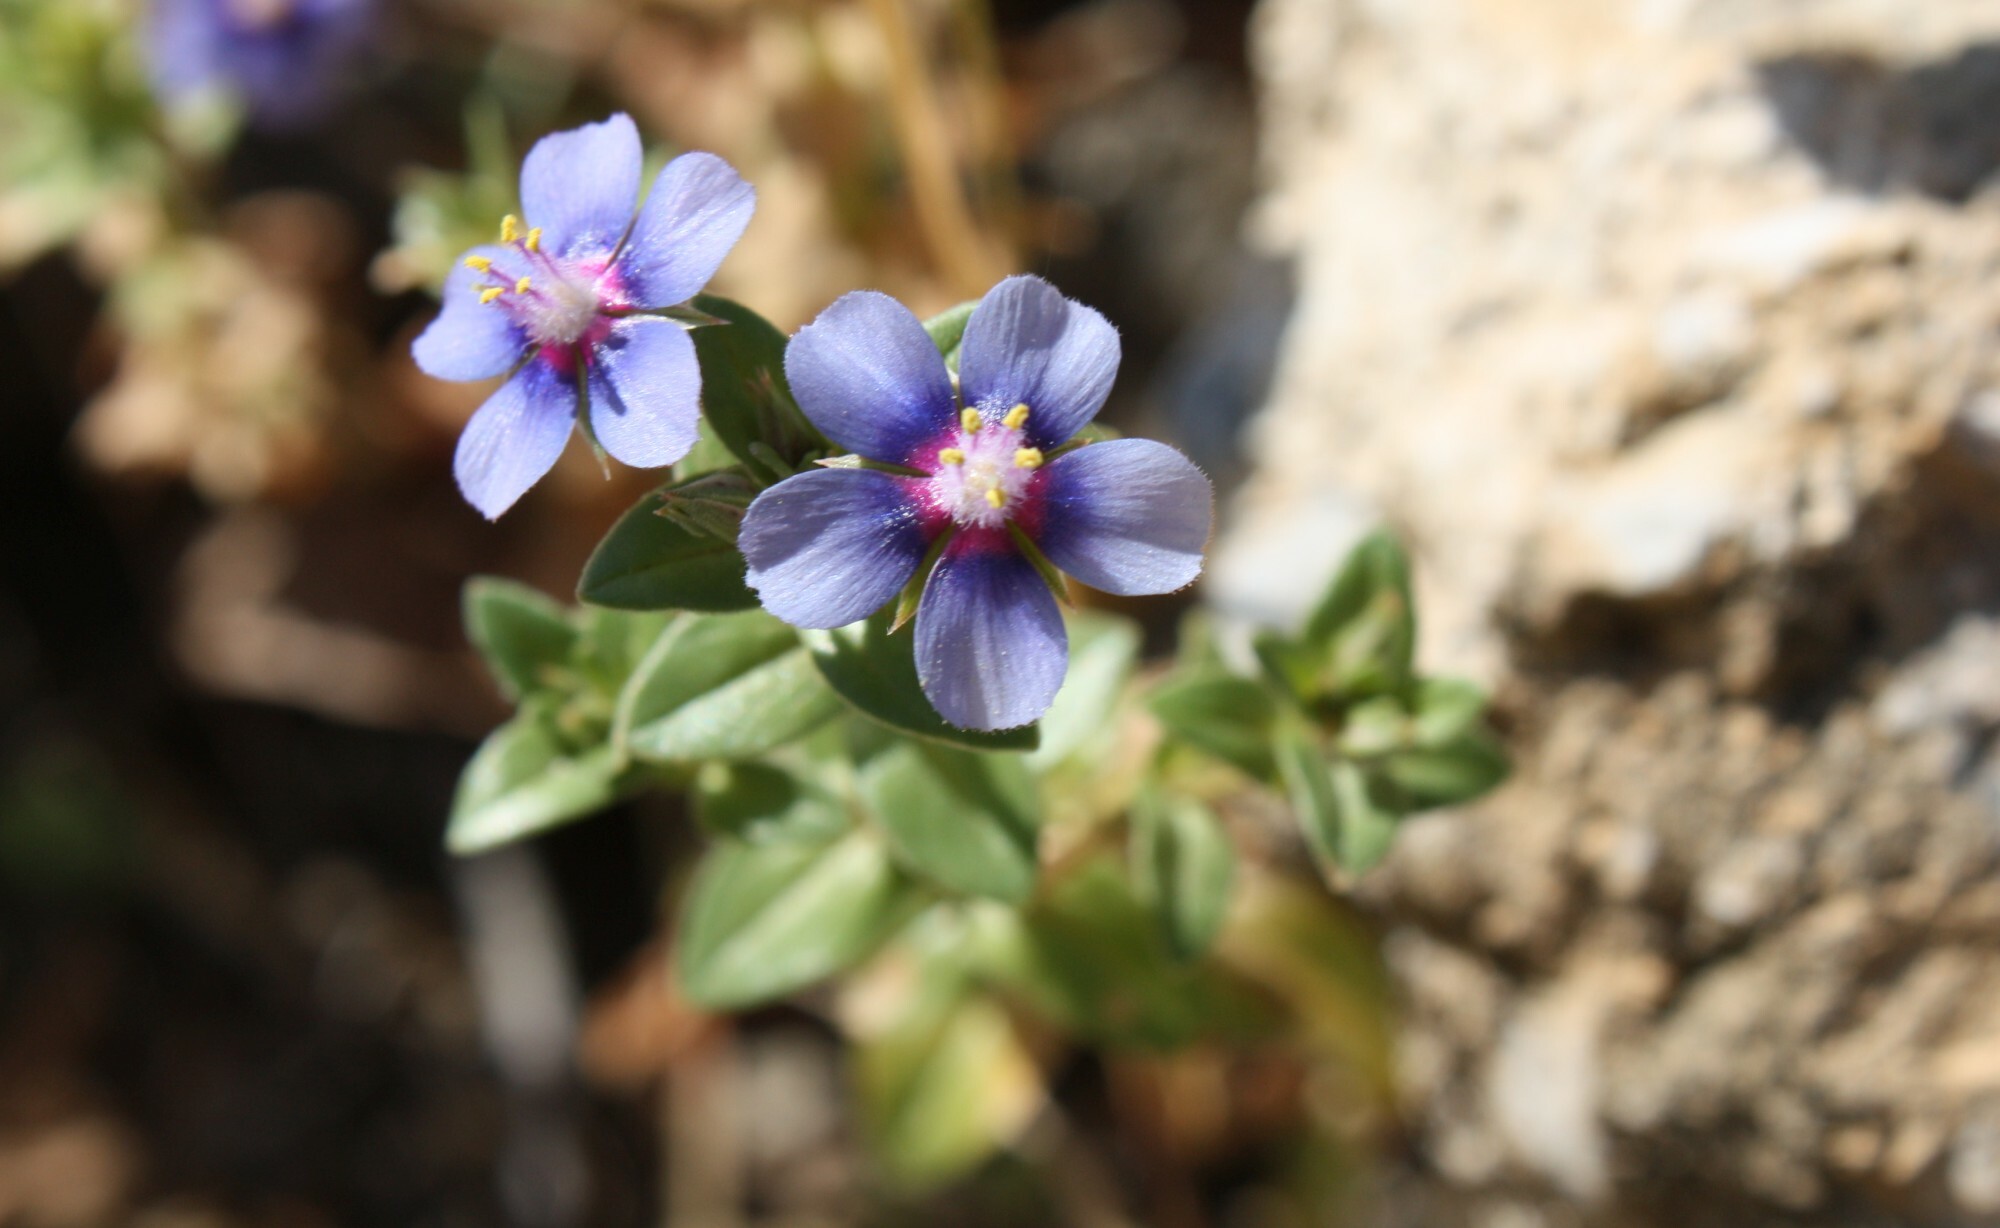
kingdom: Plantae
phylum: Tracheophyta
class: Magnoliopsida
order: Ericales
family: Primulaceae
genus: Lysimachia
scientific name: Lysimachia loeflingii
